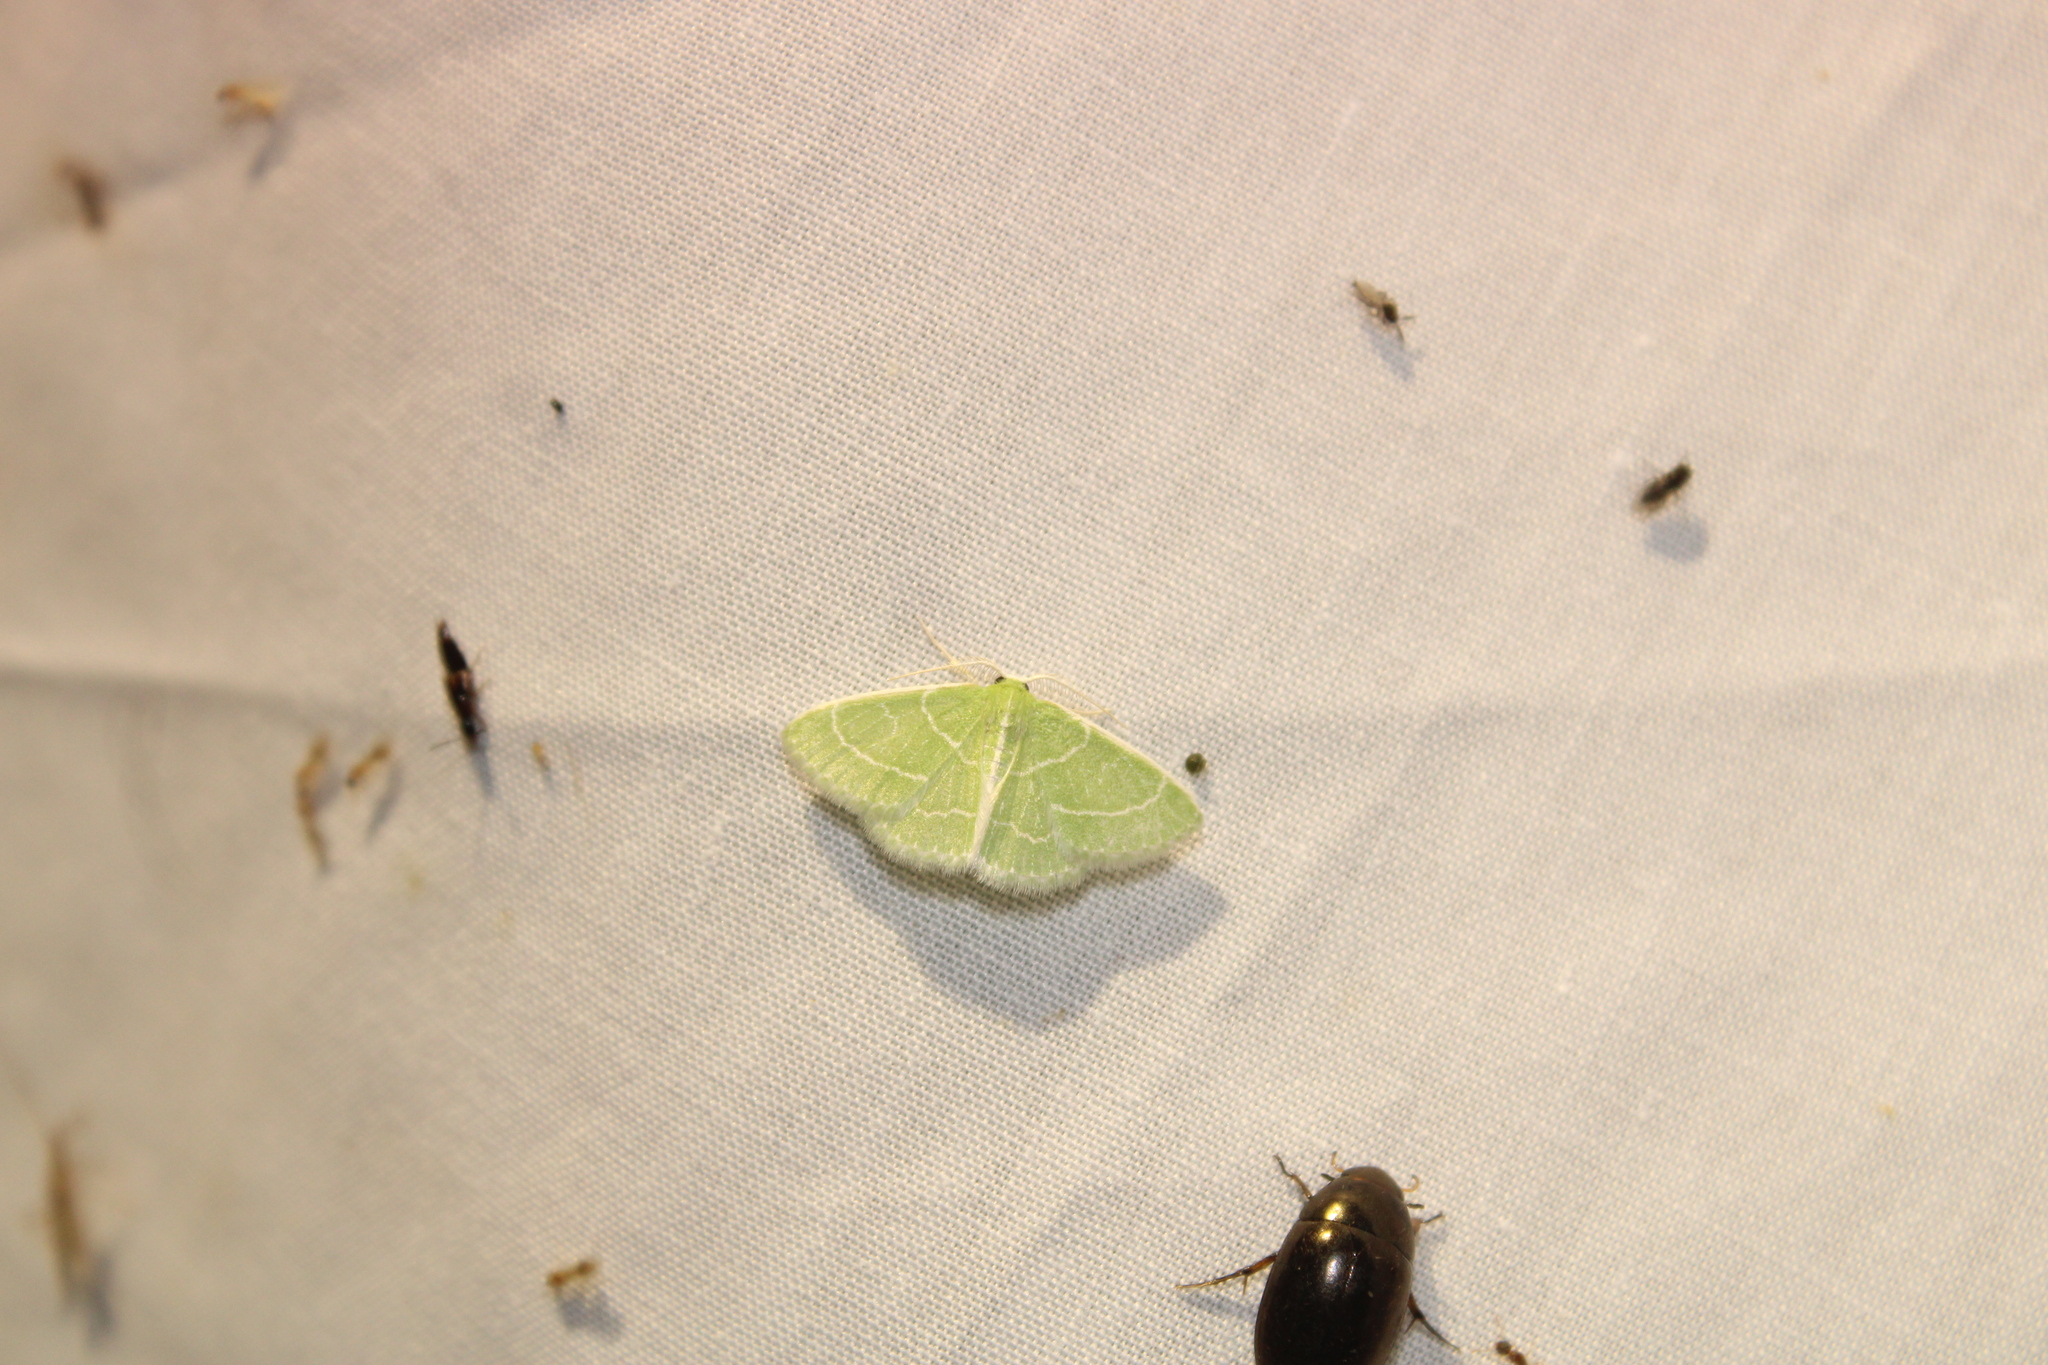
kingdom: Animalia
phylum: Arthropoda
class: Insecta
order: Lepidoptera
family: Geometridae
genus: Synchlora
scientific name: Synchlora aerata
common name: Wavy-lined emerald
